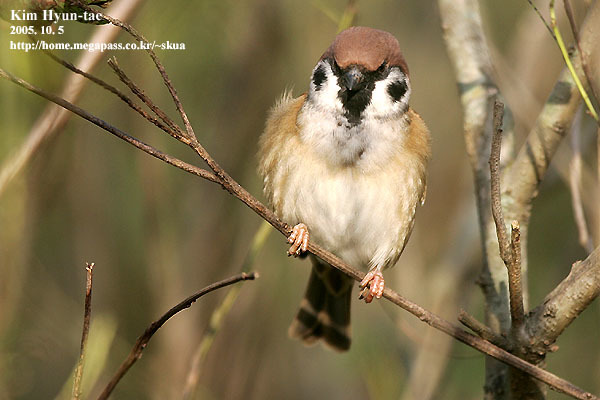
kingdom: Animalia
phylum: Chordata
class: Aves
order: Passeriformes
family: Passeridae
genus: Passer
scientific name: Passer montanus
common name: Eurasian tree sparrow
